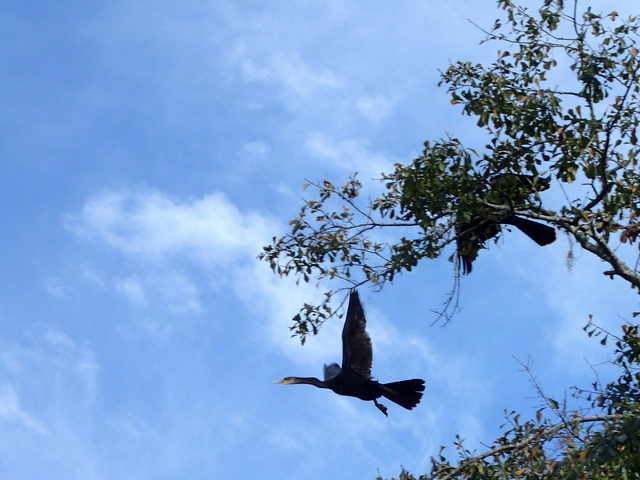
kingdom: Animalia
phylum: Chordata
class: Aves
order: Suliformes
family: Anhingidae
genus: Anhinga
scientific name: Anhinga anhinga
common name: Anhinga
